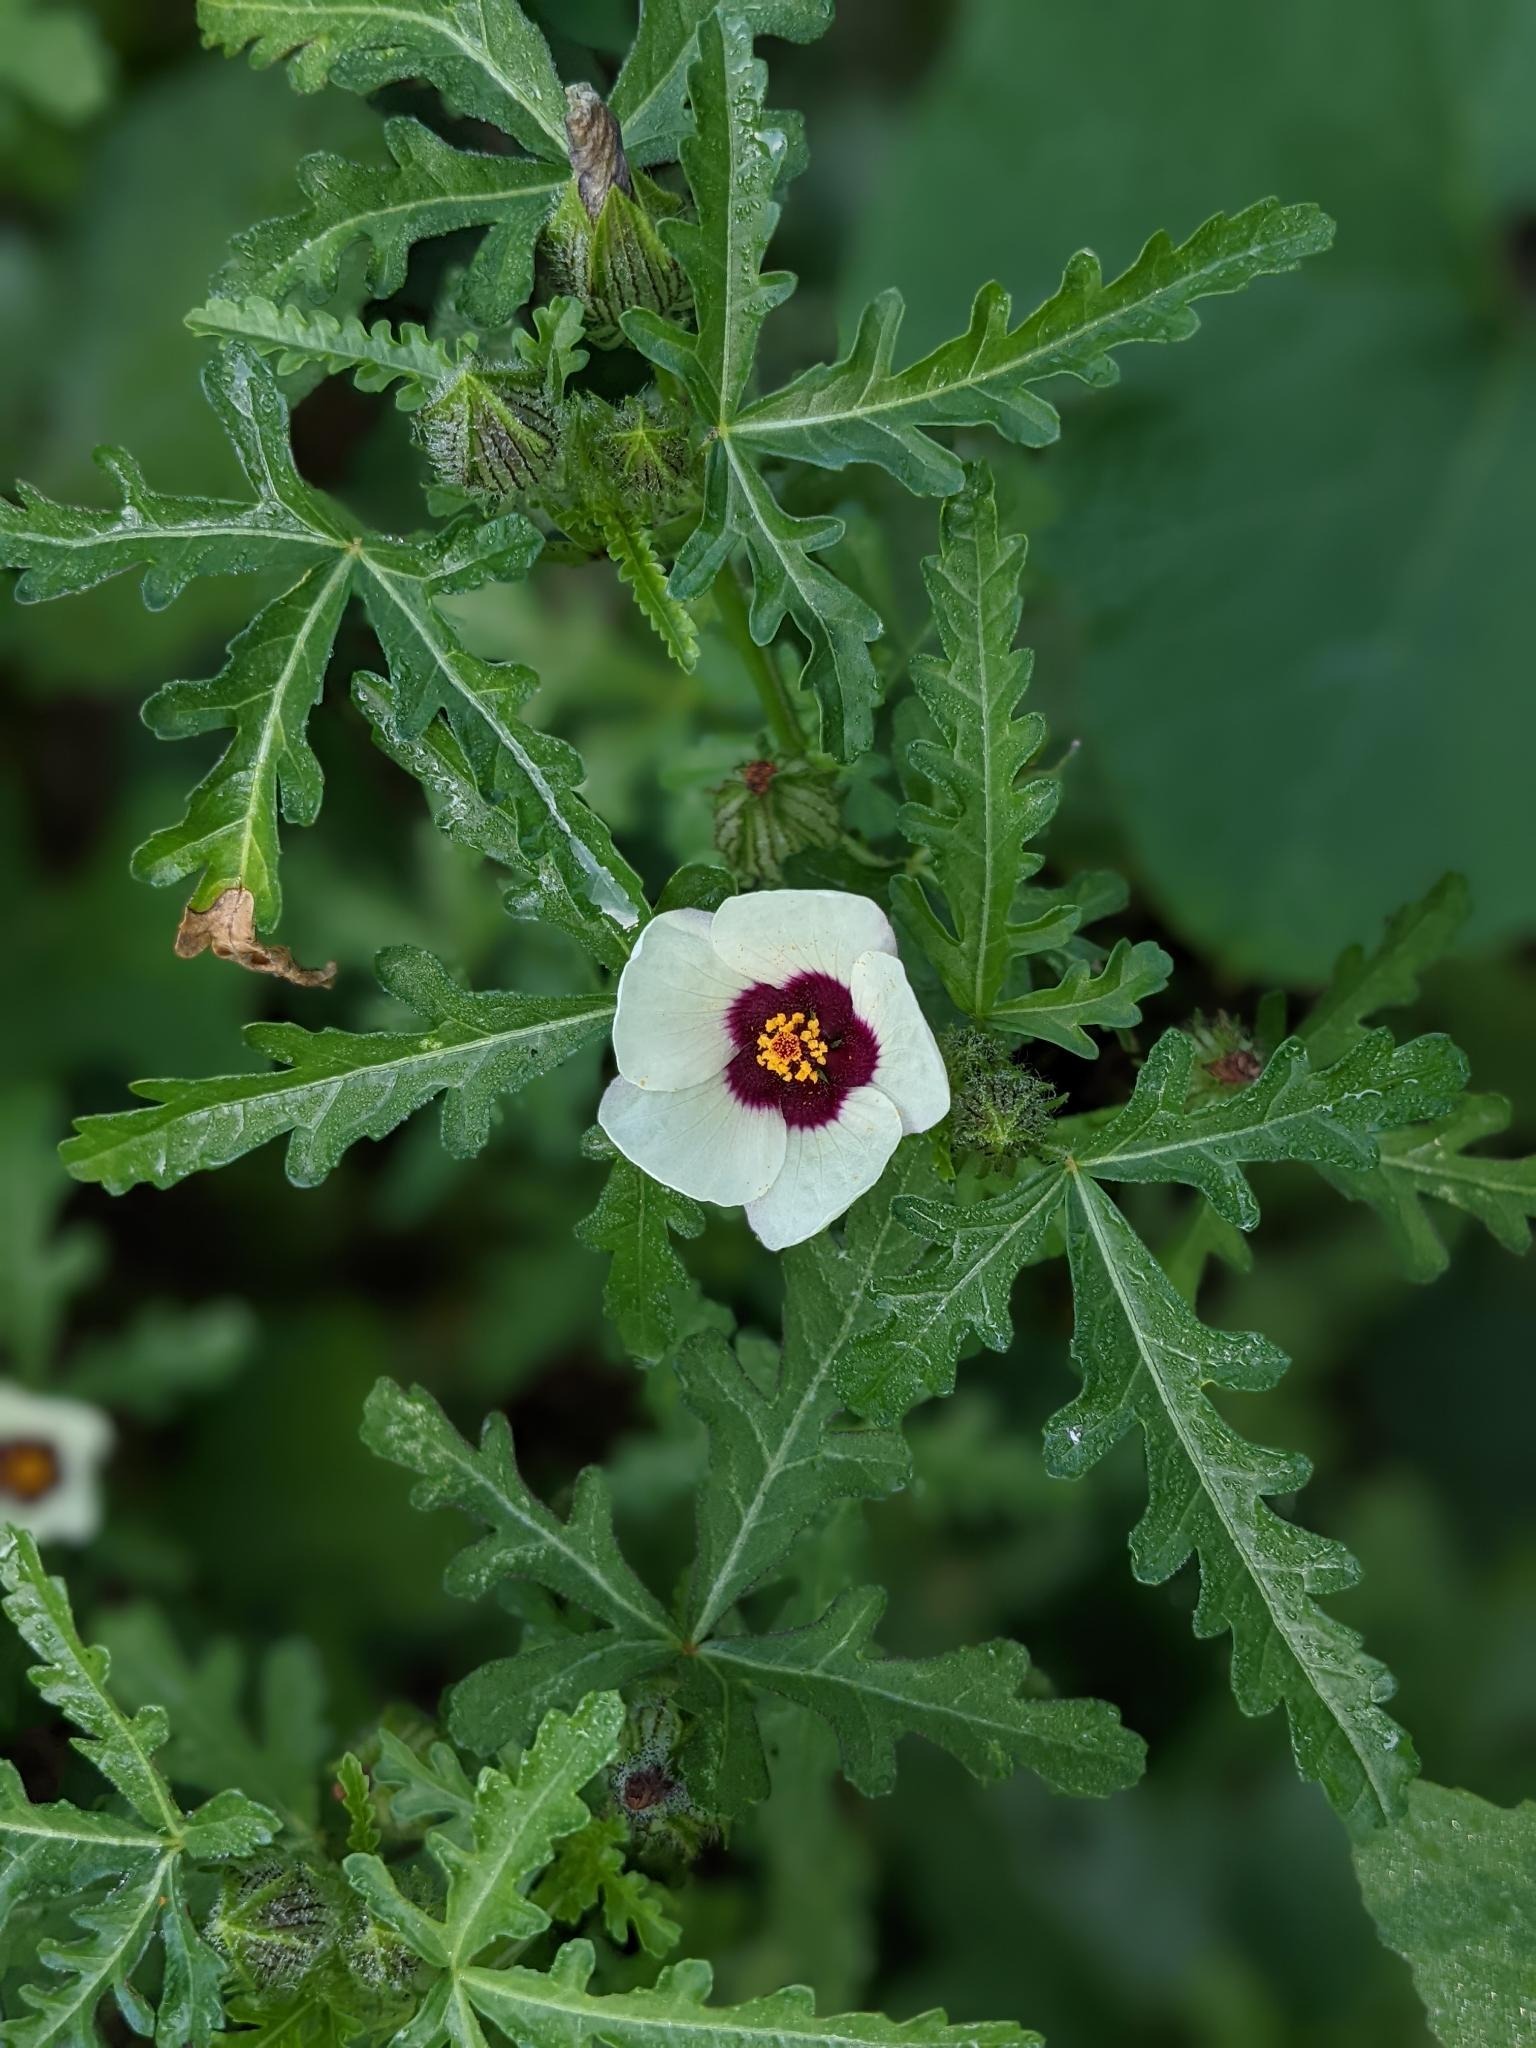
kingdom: Plantae
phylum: Tracheophyta
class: Magnoliopsida
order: Malvales
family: Malvaceae
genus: Hibiscus
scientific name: Hibiscus trionum
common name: Bladder ketmia
